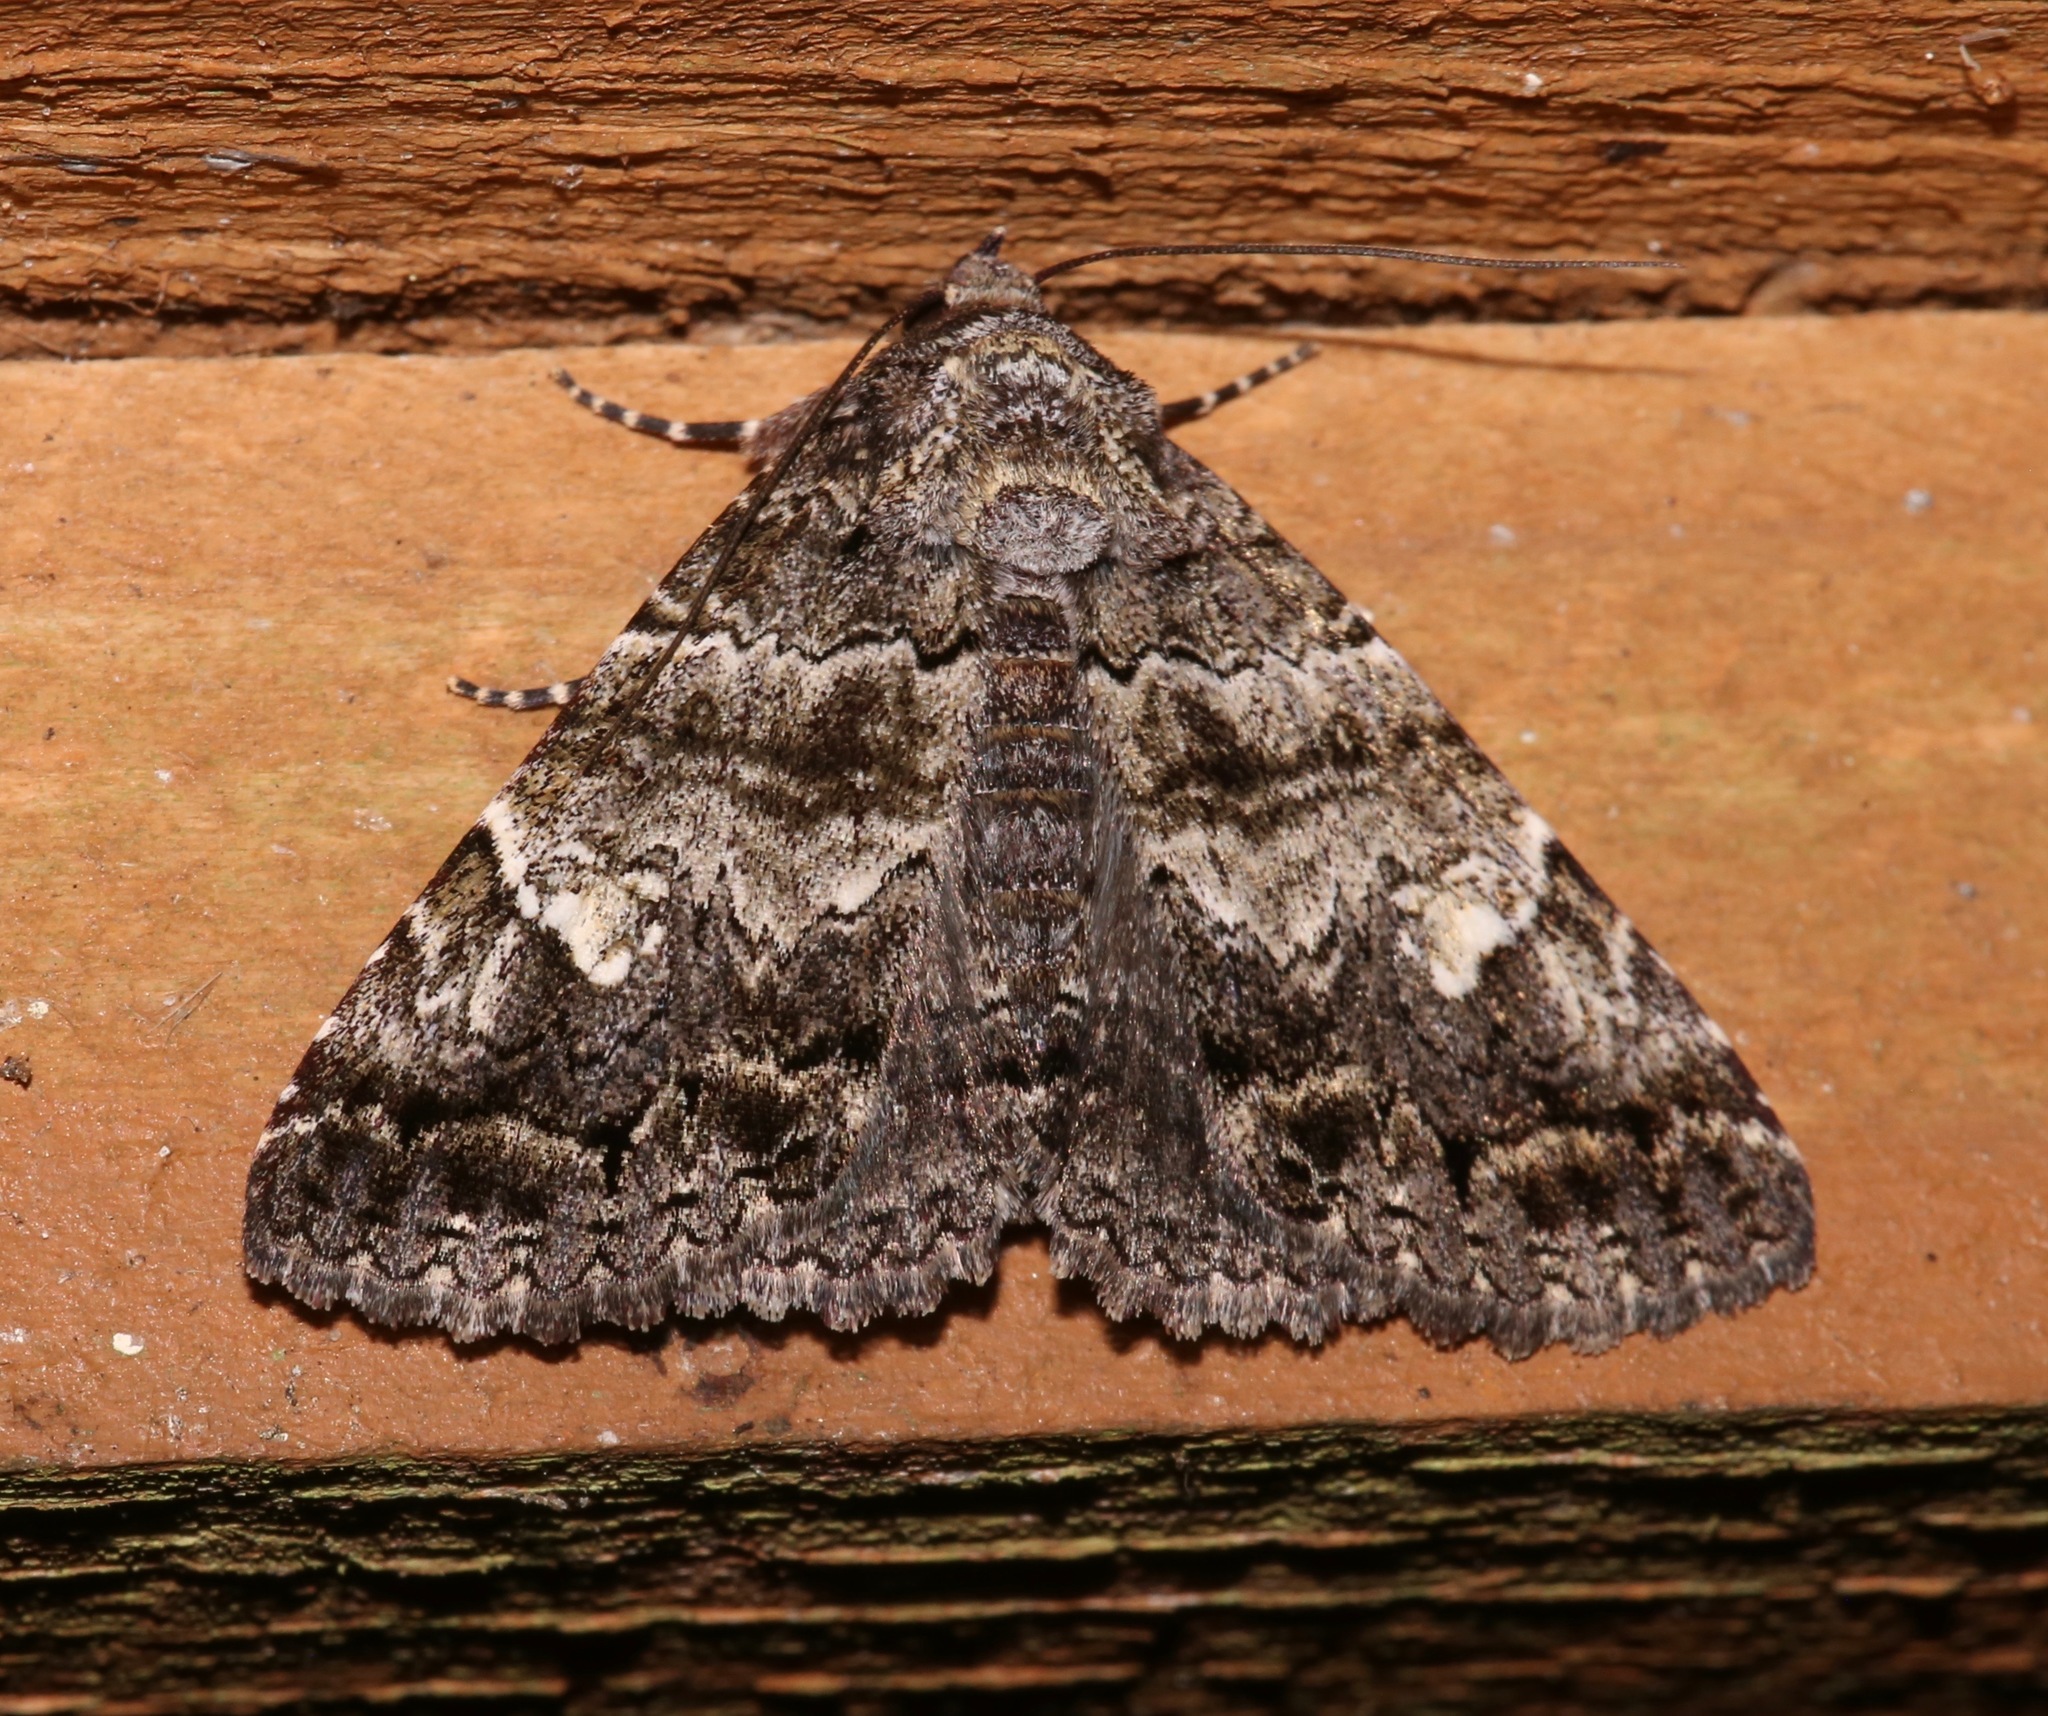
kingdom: Animalia
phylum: Arthropoda
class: Insecta
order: Lepidoptera
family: Erebidae
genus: Metria
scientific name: Metria amella
